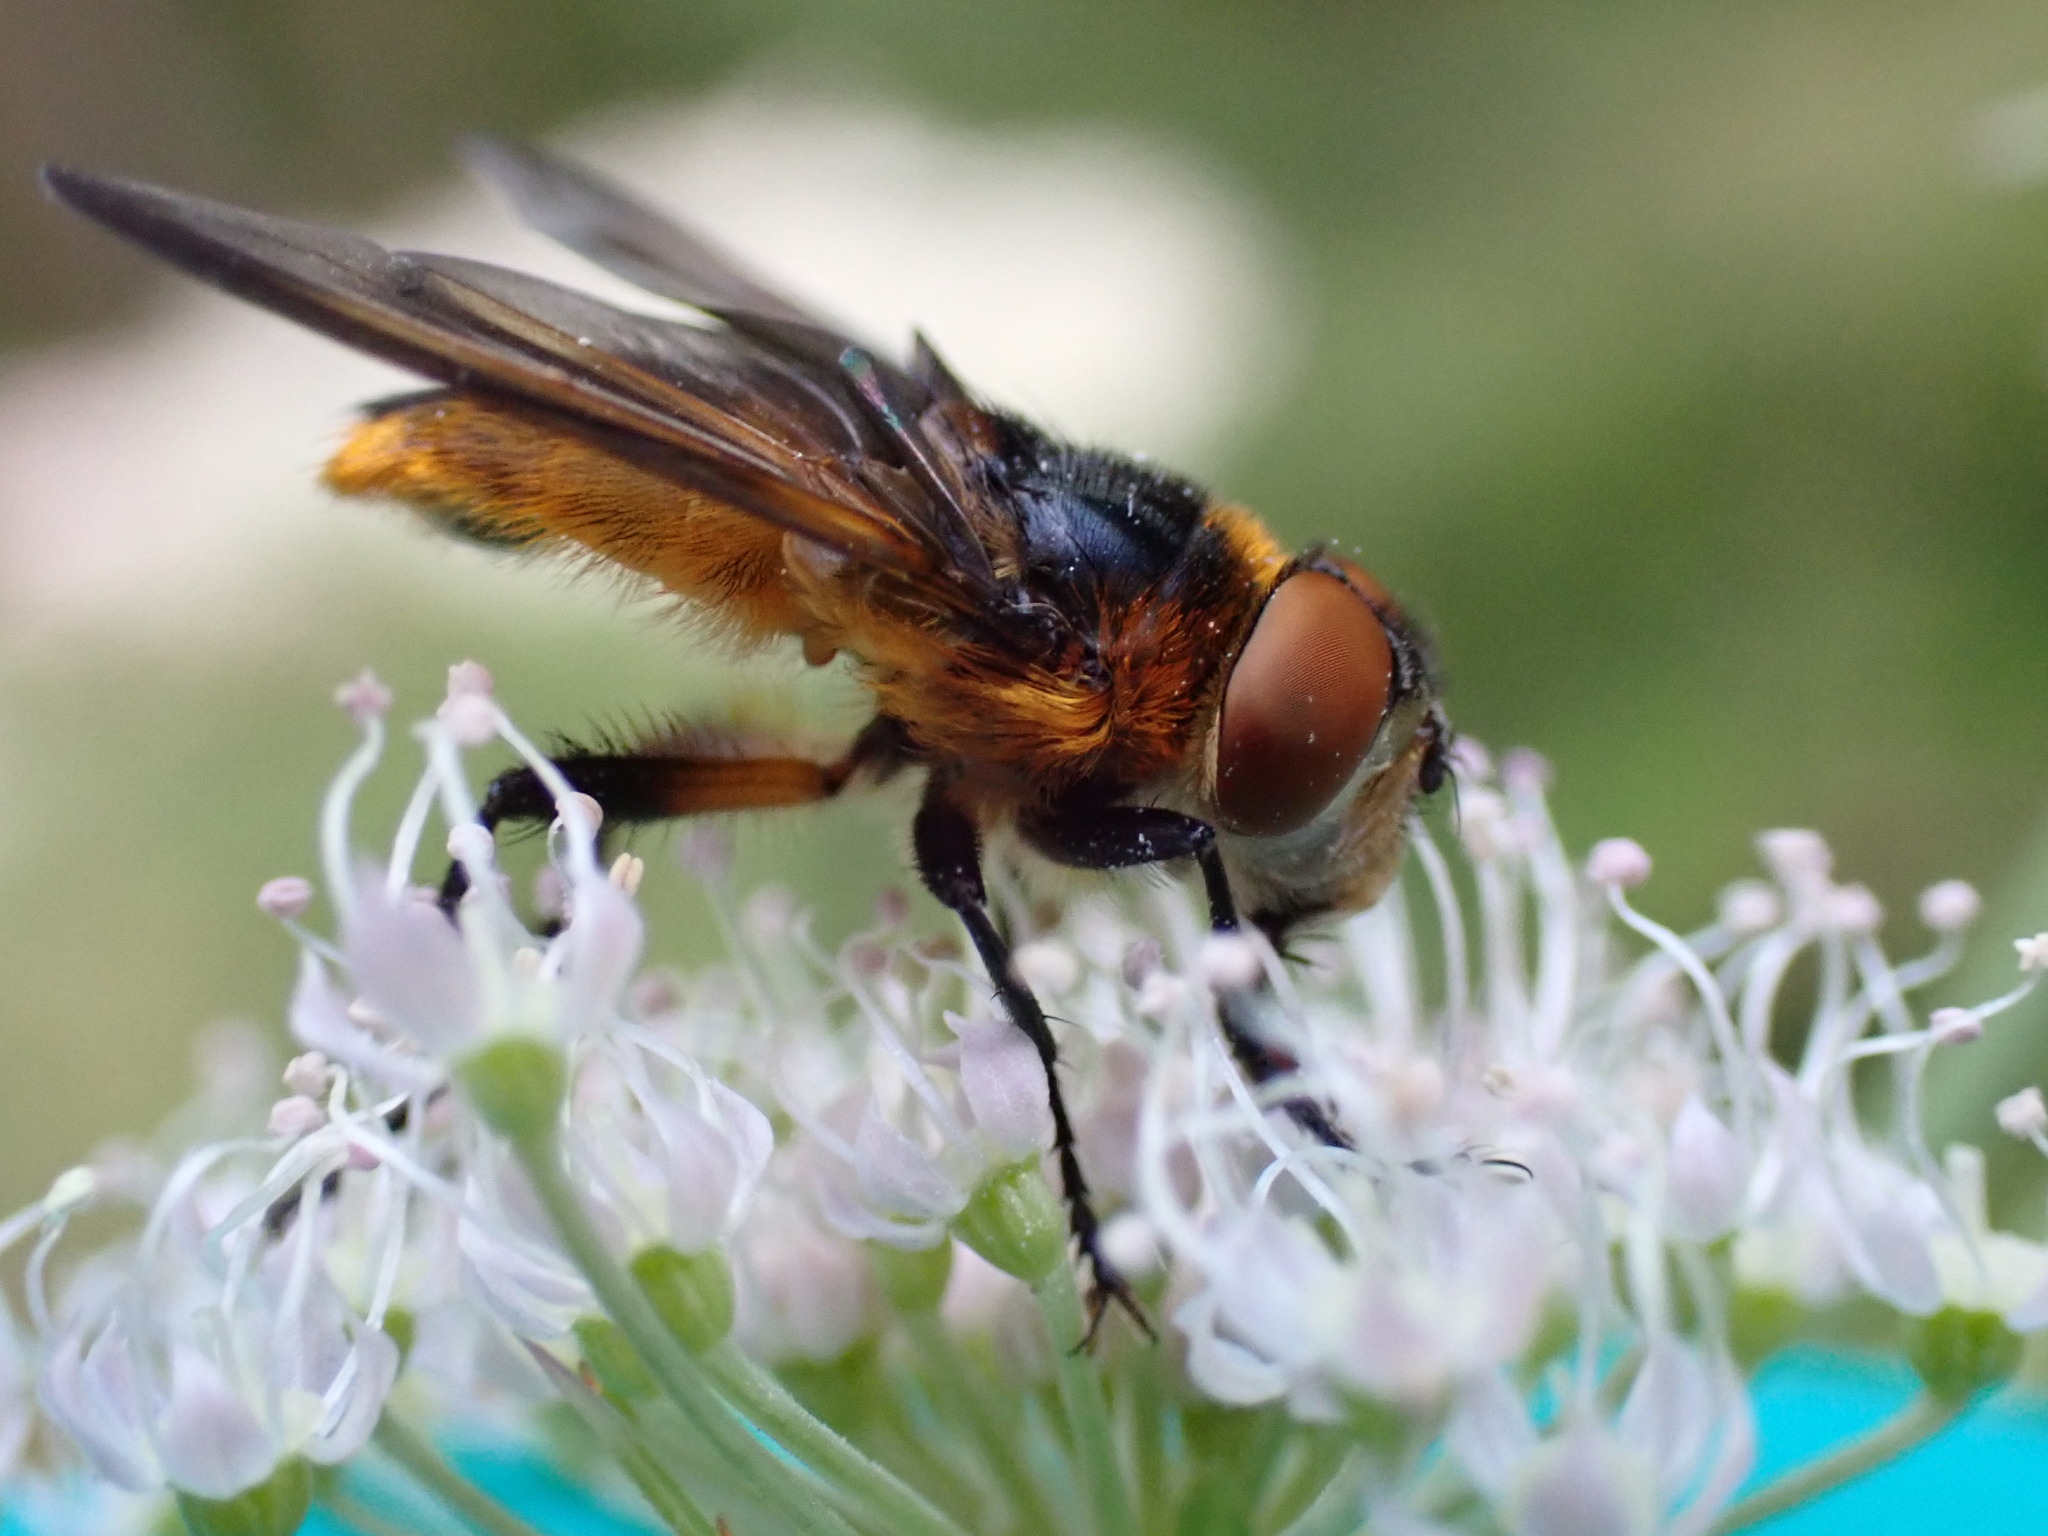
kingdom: Animalia
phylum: Arthropoda
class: Insecta
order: Diptera
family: Tachinidae
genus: Phasia
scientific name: Phasia hemiptera
